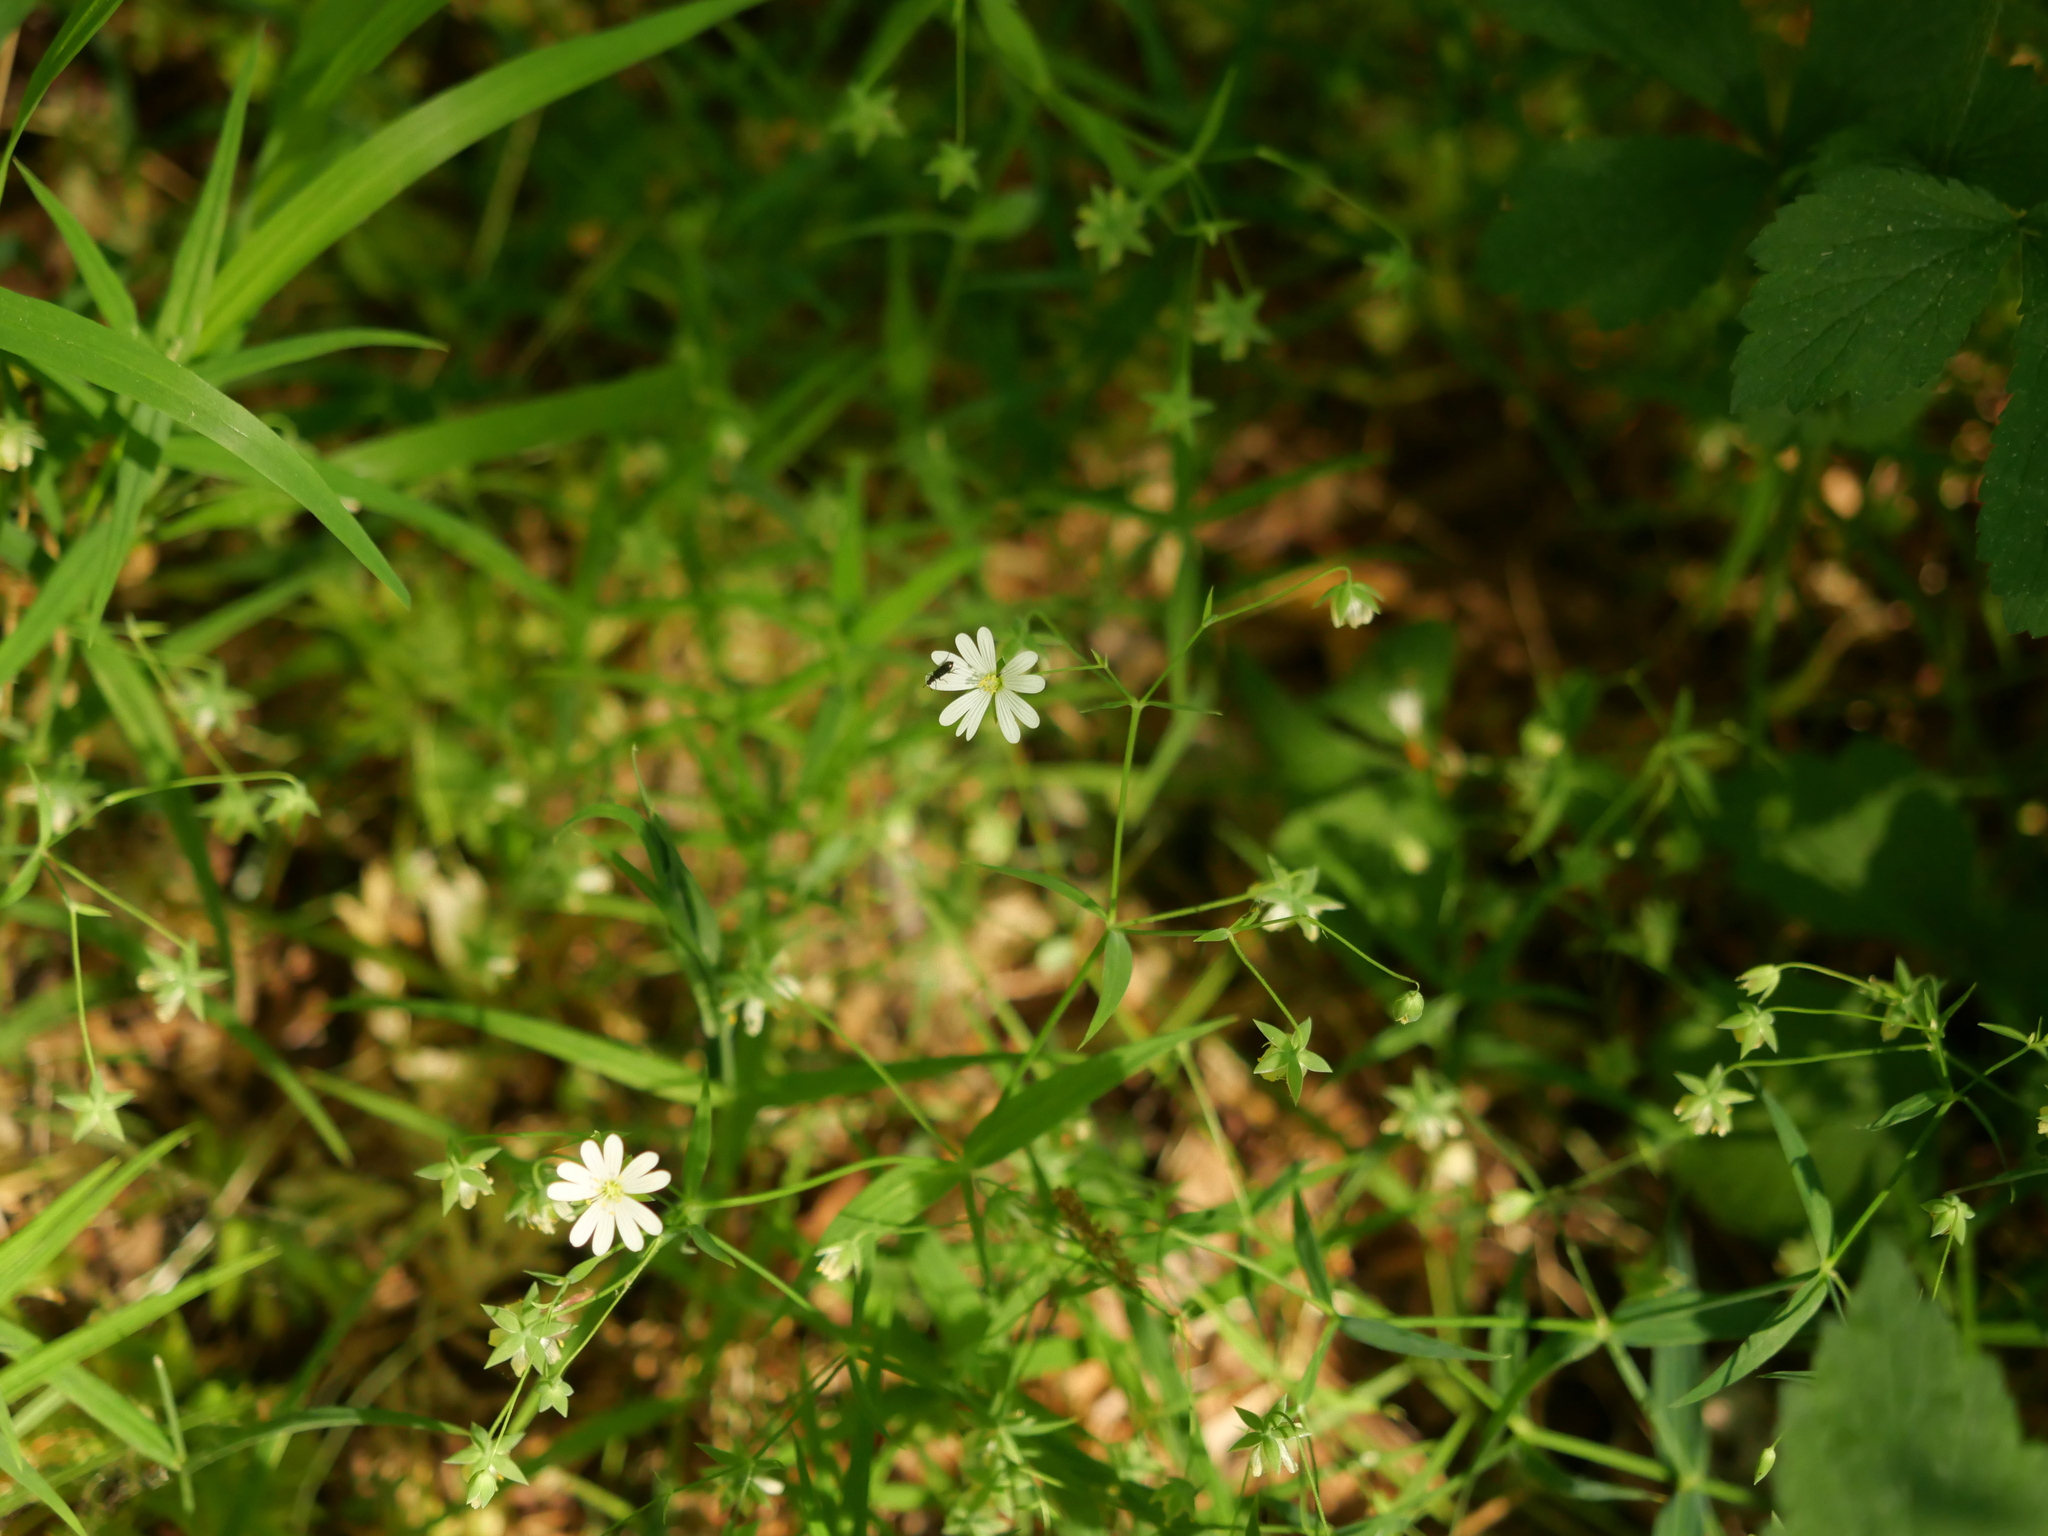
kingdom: Plantae
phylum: Tracheophyta
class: Magnoliopsida
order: Caryophyllales
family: Caryophyllaceae
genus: Rabelera
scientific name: Rabelera holostea
